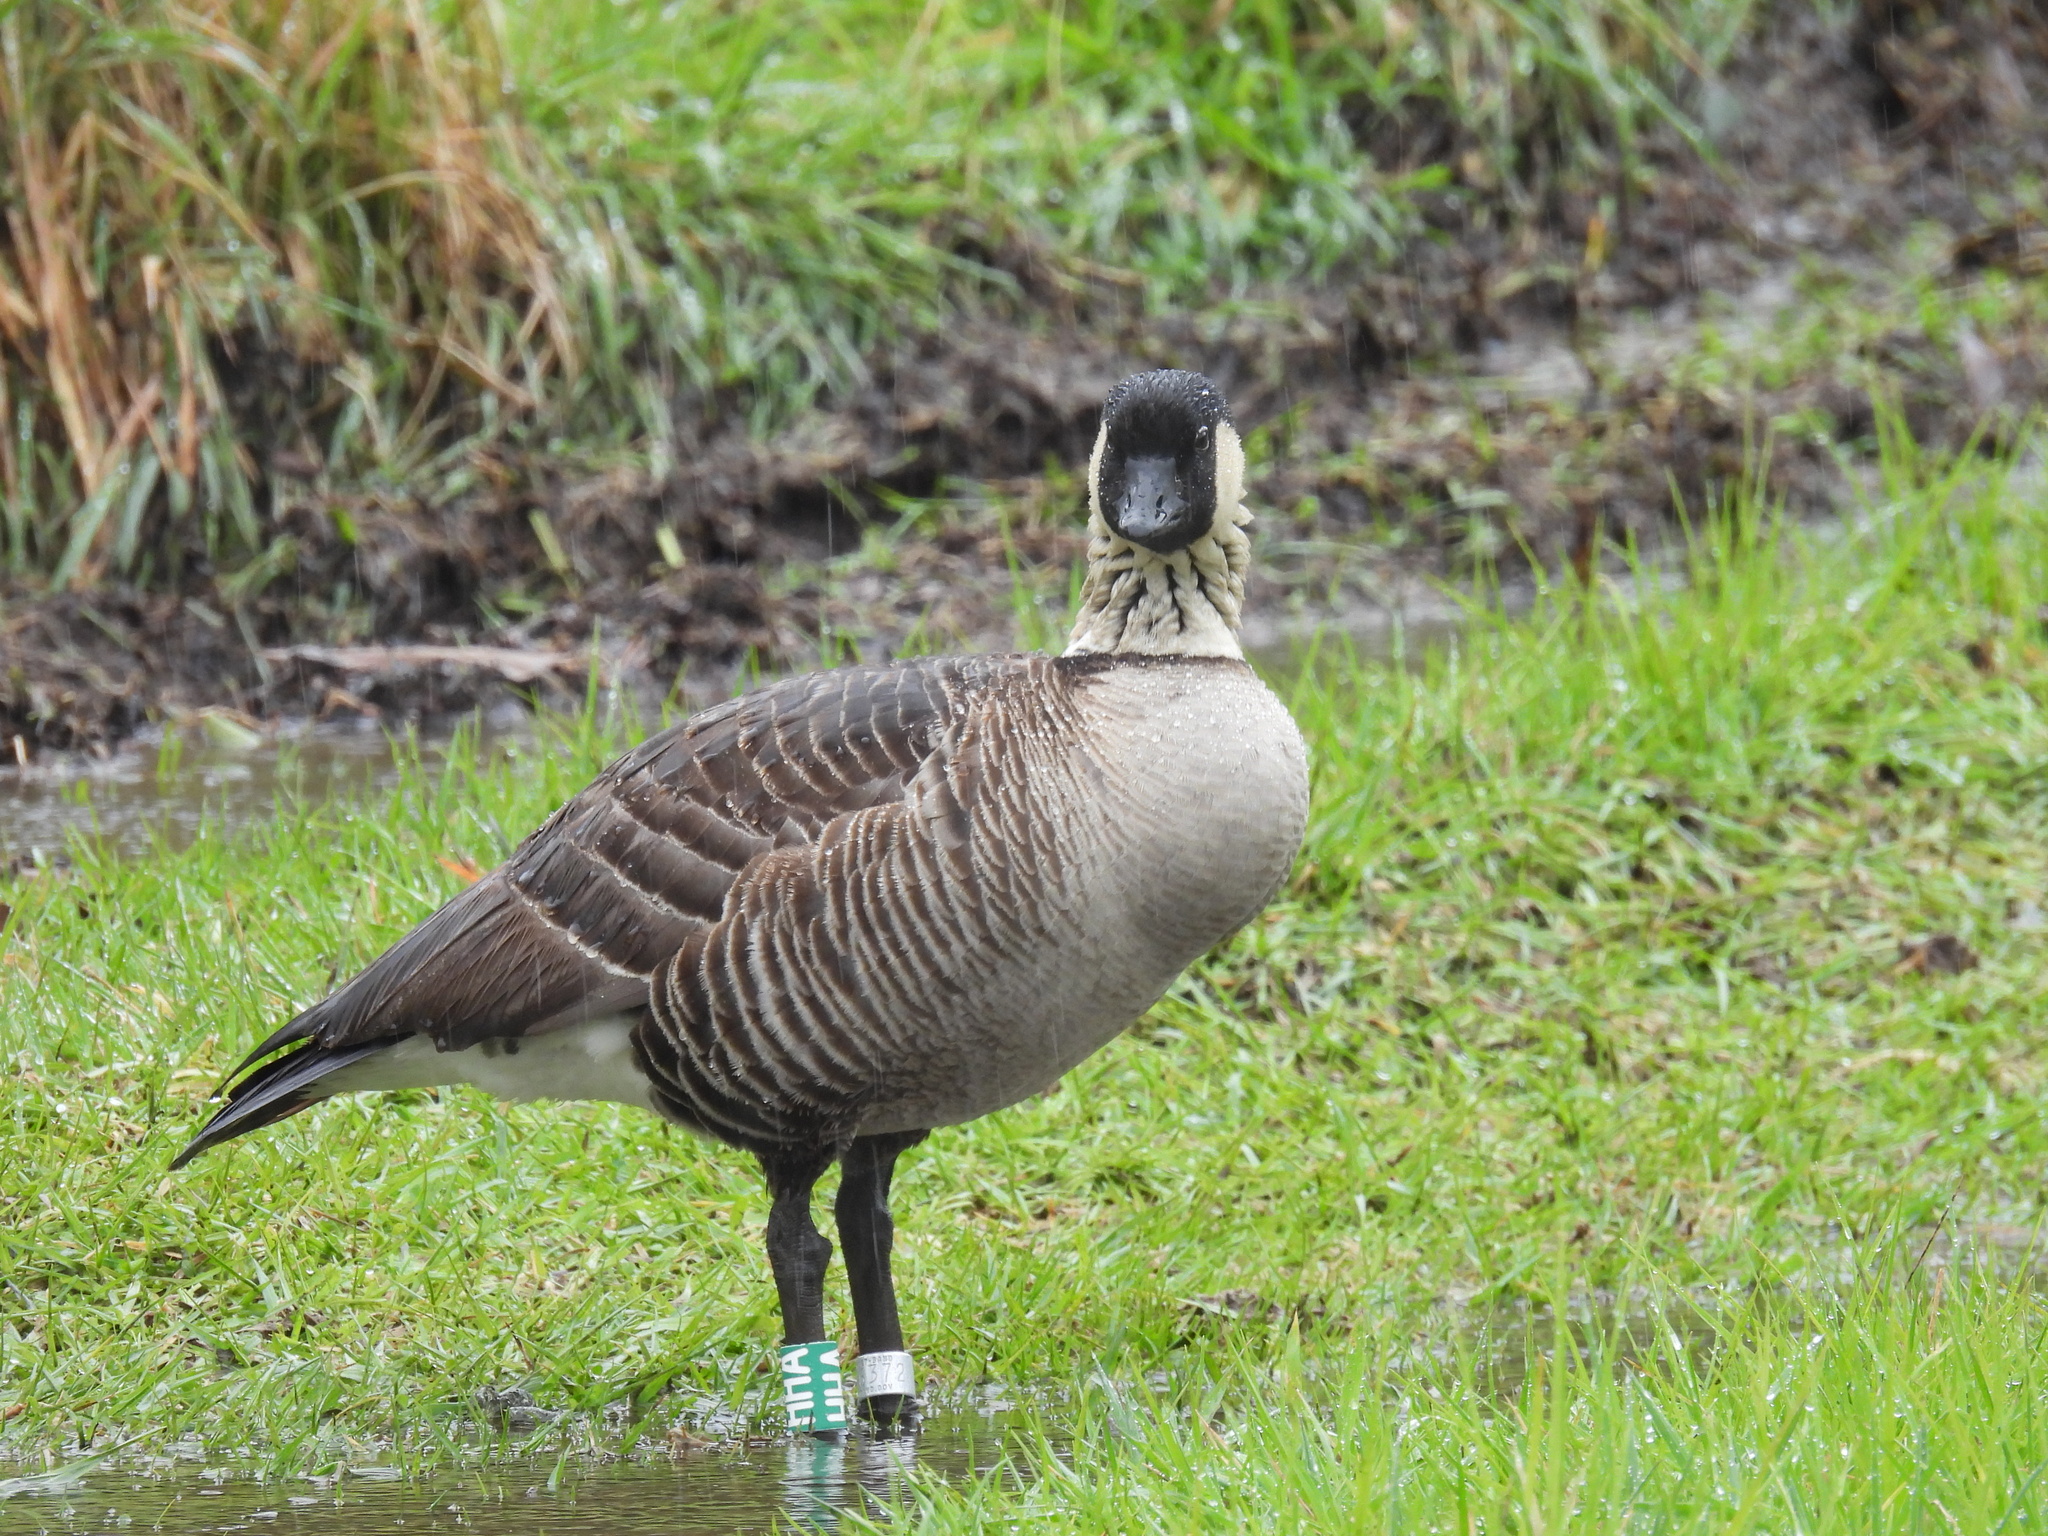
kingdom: Animalia
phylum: Chordata
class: Aves
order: Anseriformes
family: Anatidae
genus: Branta
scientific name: Branta sandvicensis
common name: Nene
